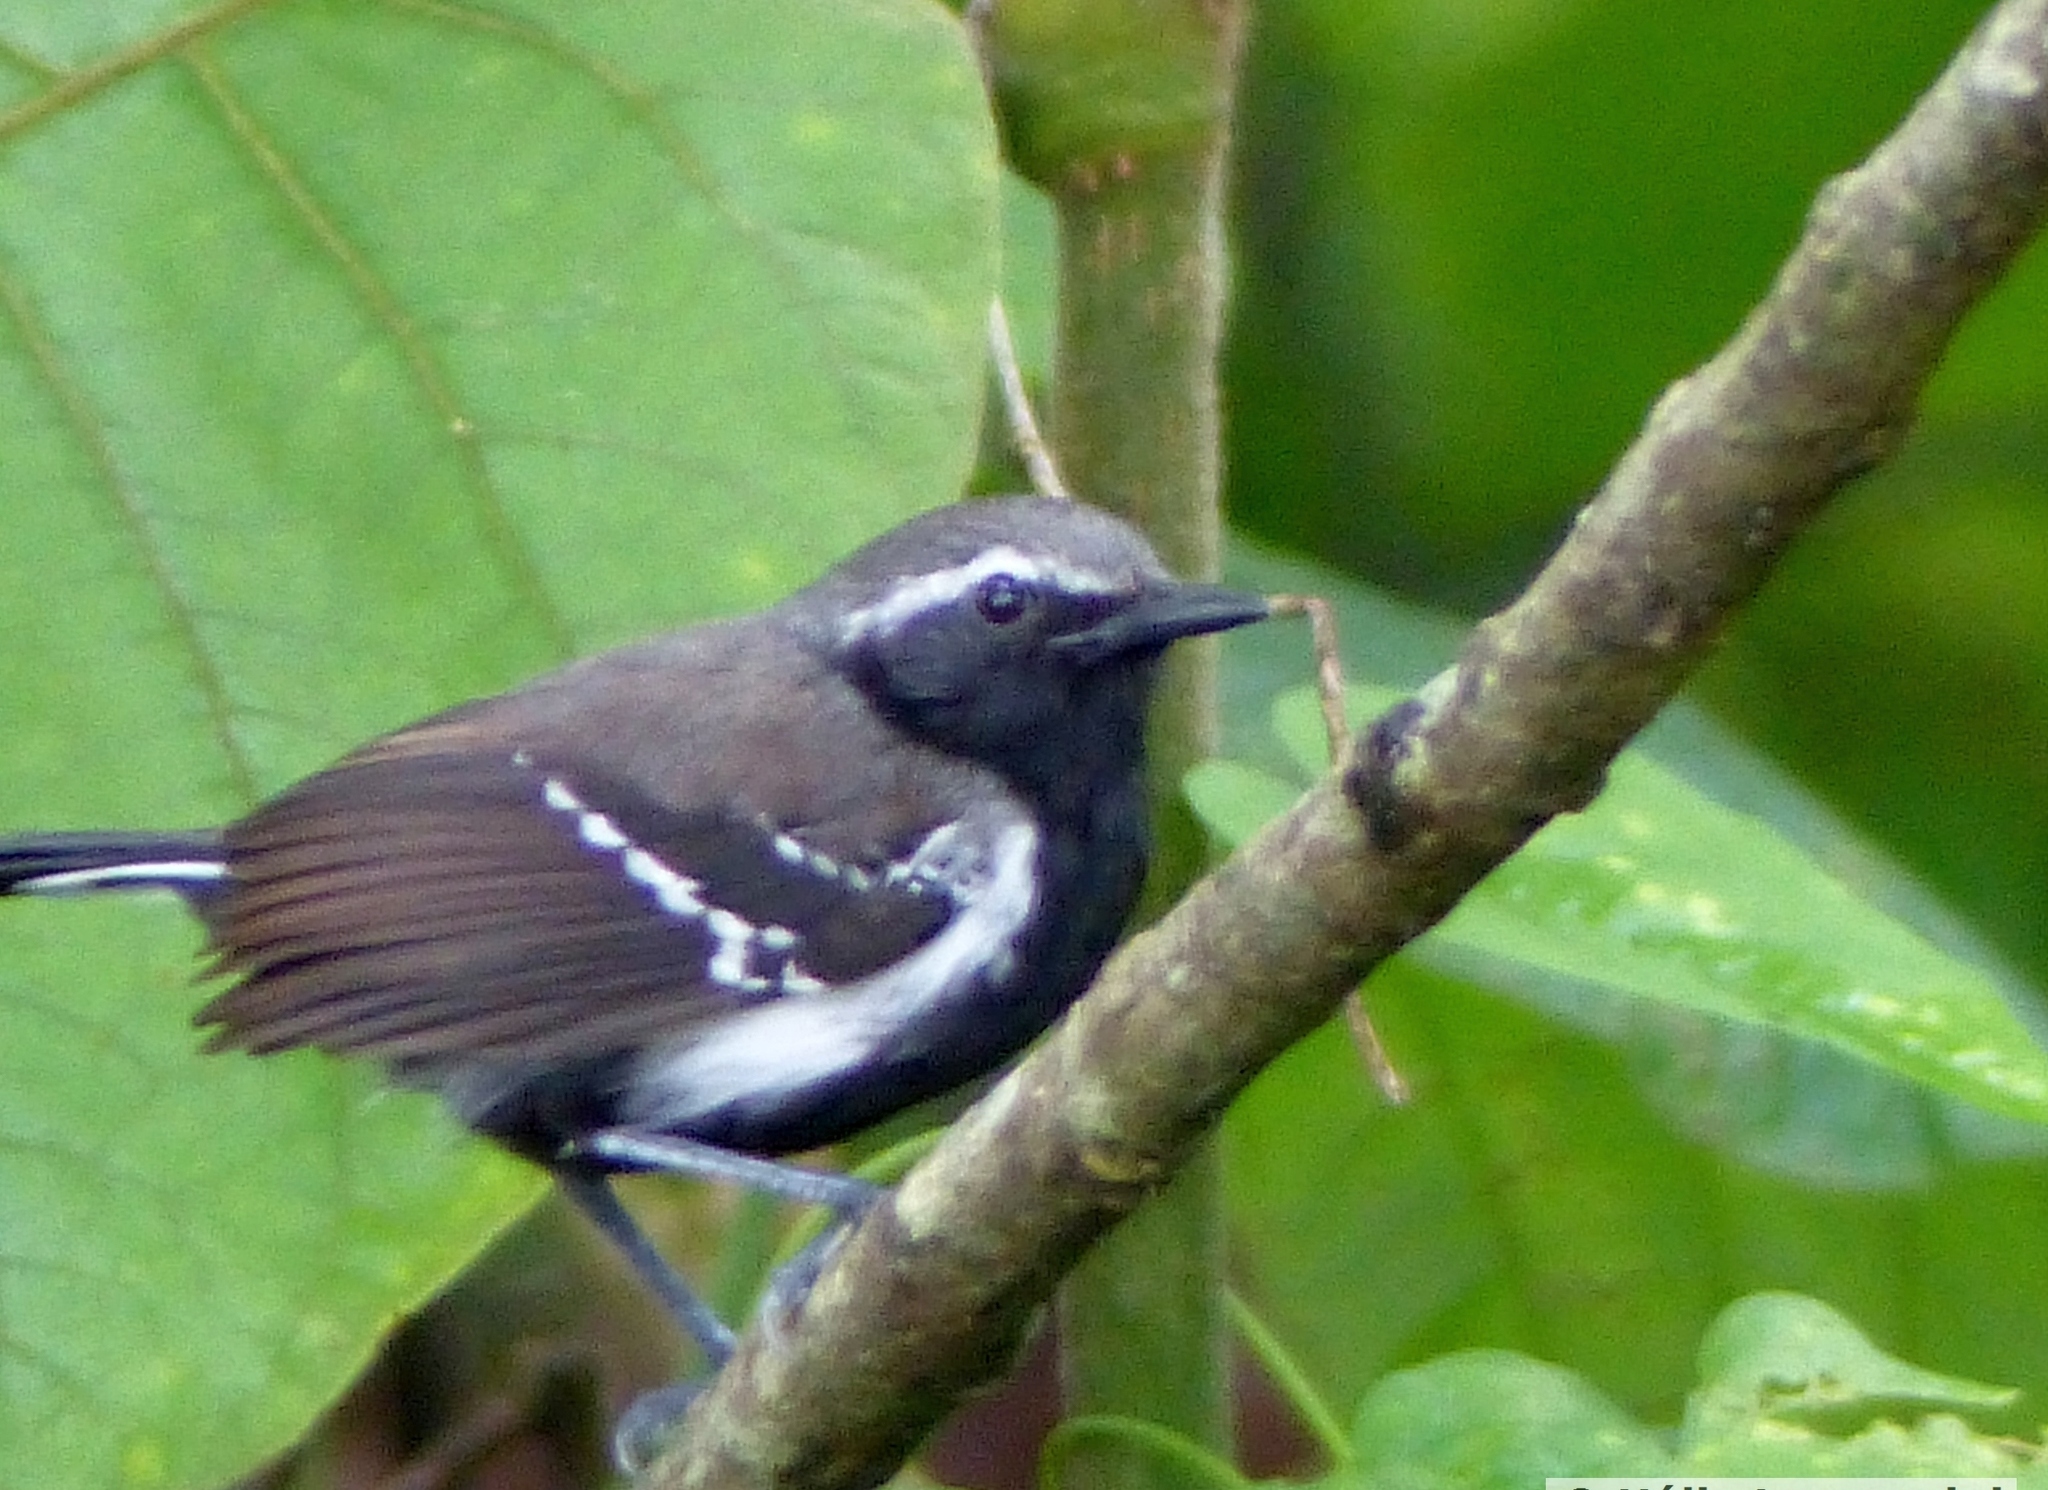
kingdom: Animalia
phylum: Chordata
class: Aves
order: Passeriformes
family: Thamnophilidae
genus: Formicivora
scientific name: Formicivora grisea
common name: Southern white-fringed antwren
